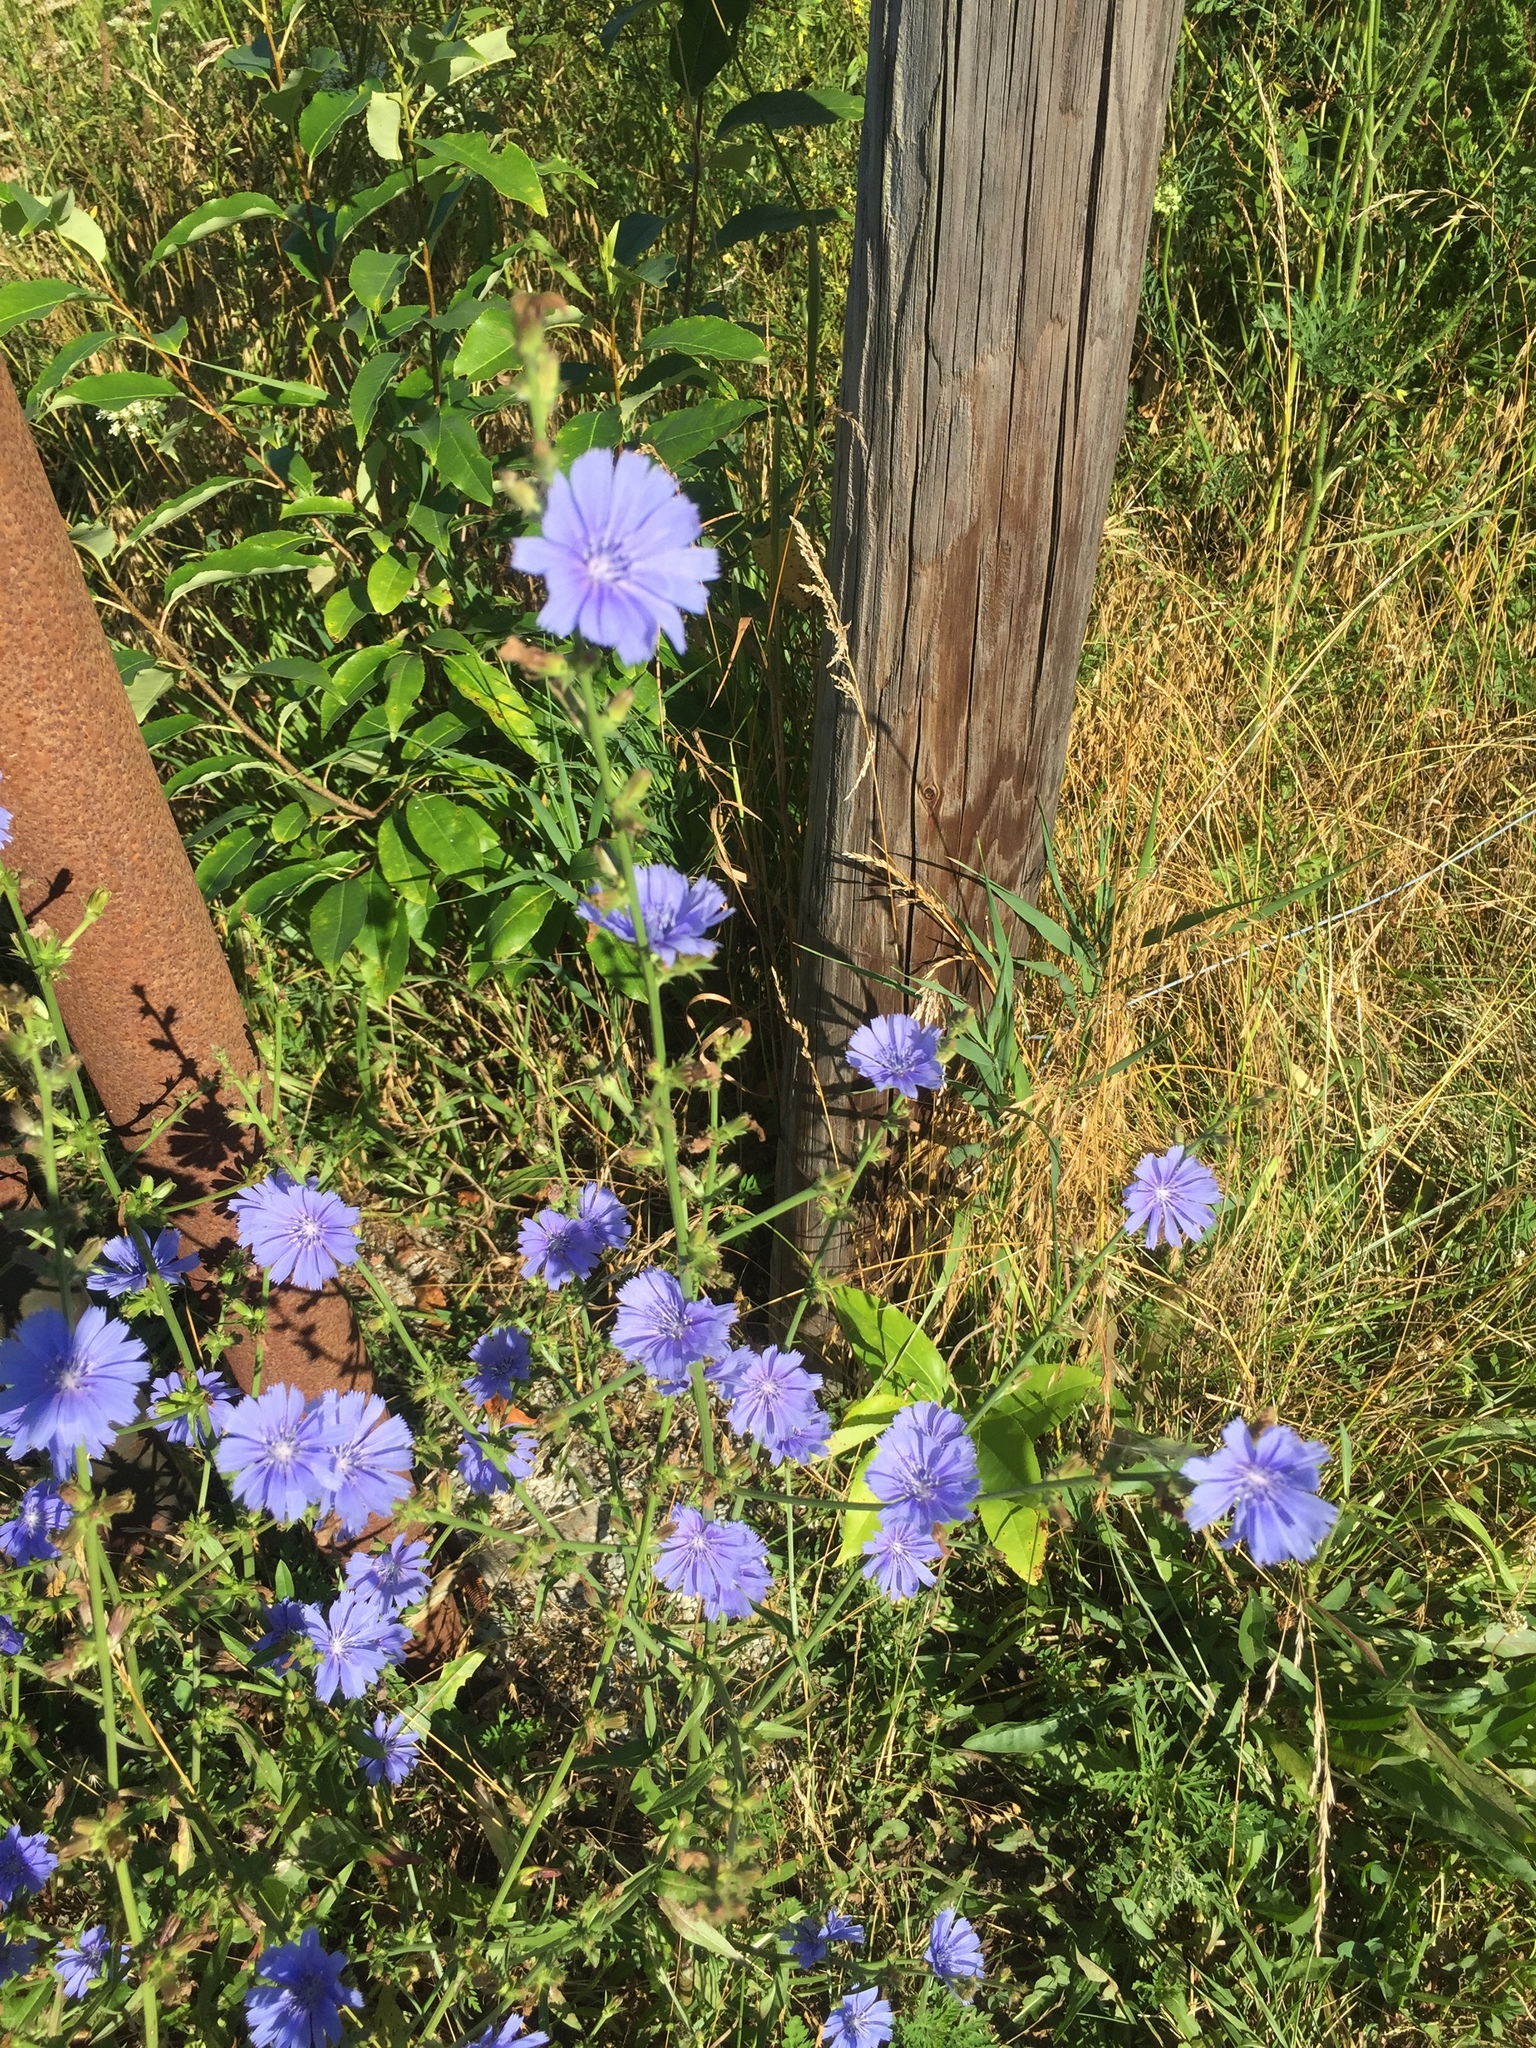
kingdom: Plantae
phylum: Tracheophyta
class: Magnoliopsida
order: Asterales
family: Asteraceae
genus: Cichorium
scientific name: Cichorium intybus
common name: Chicory
